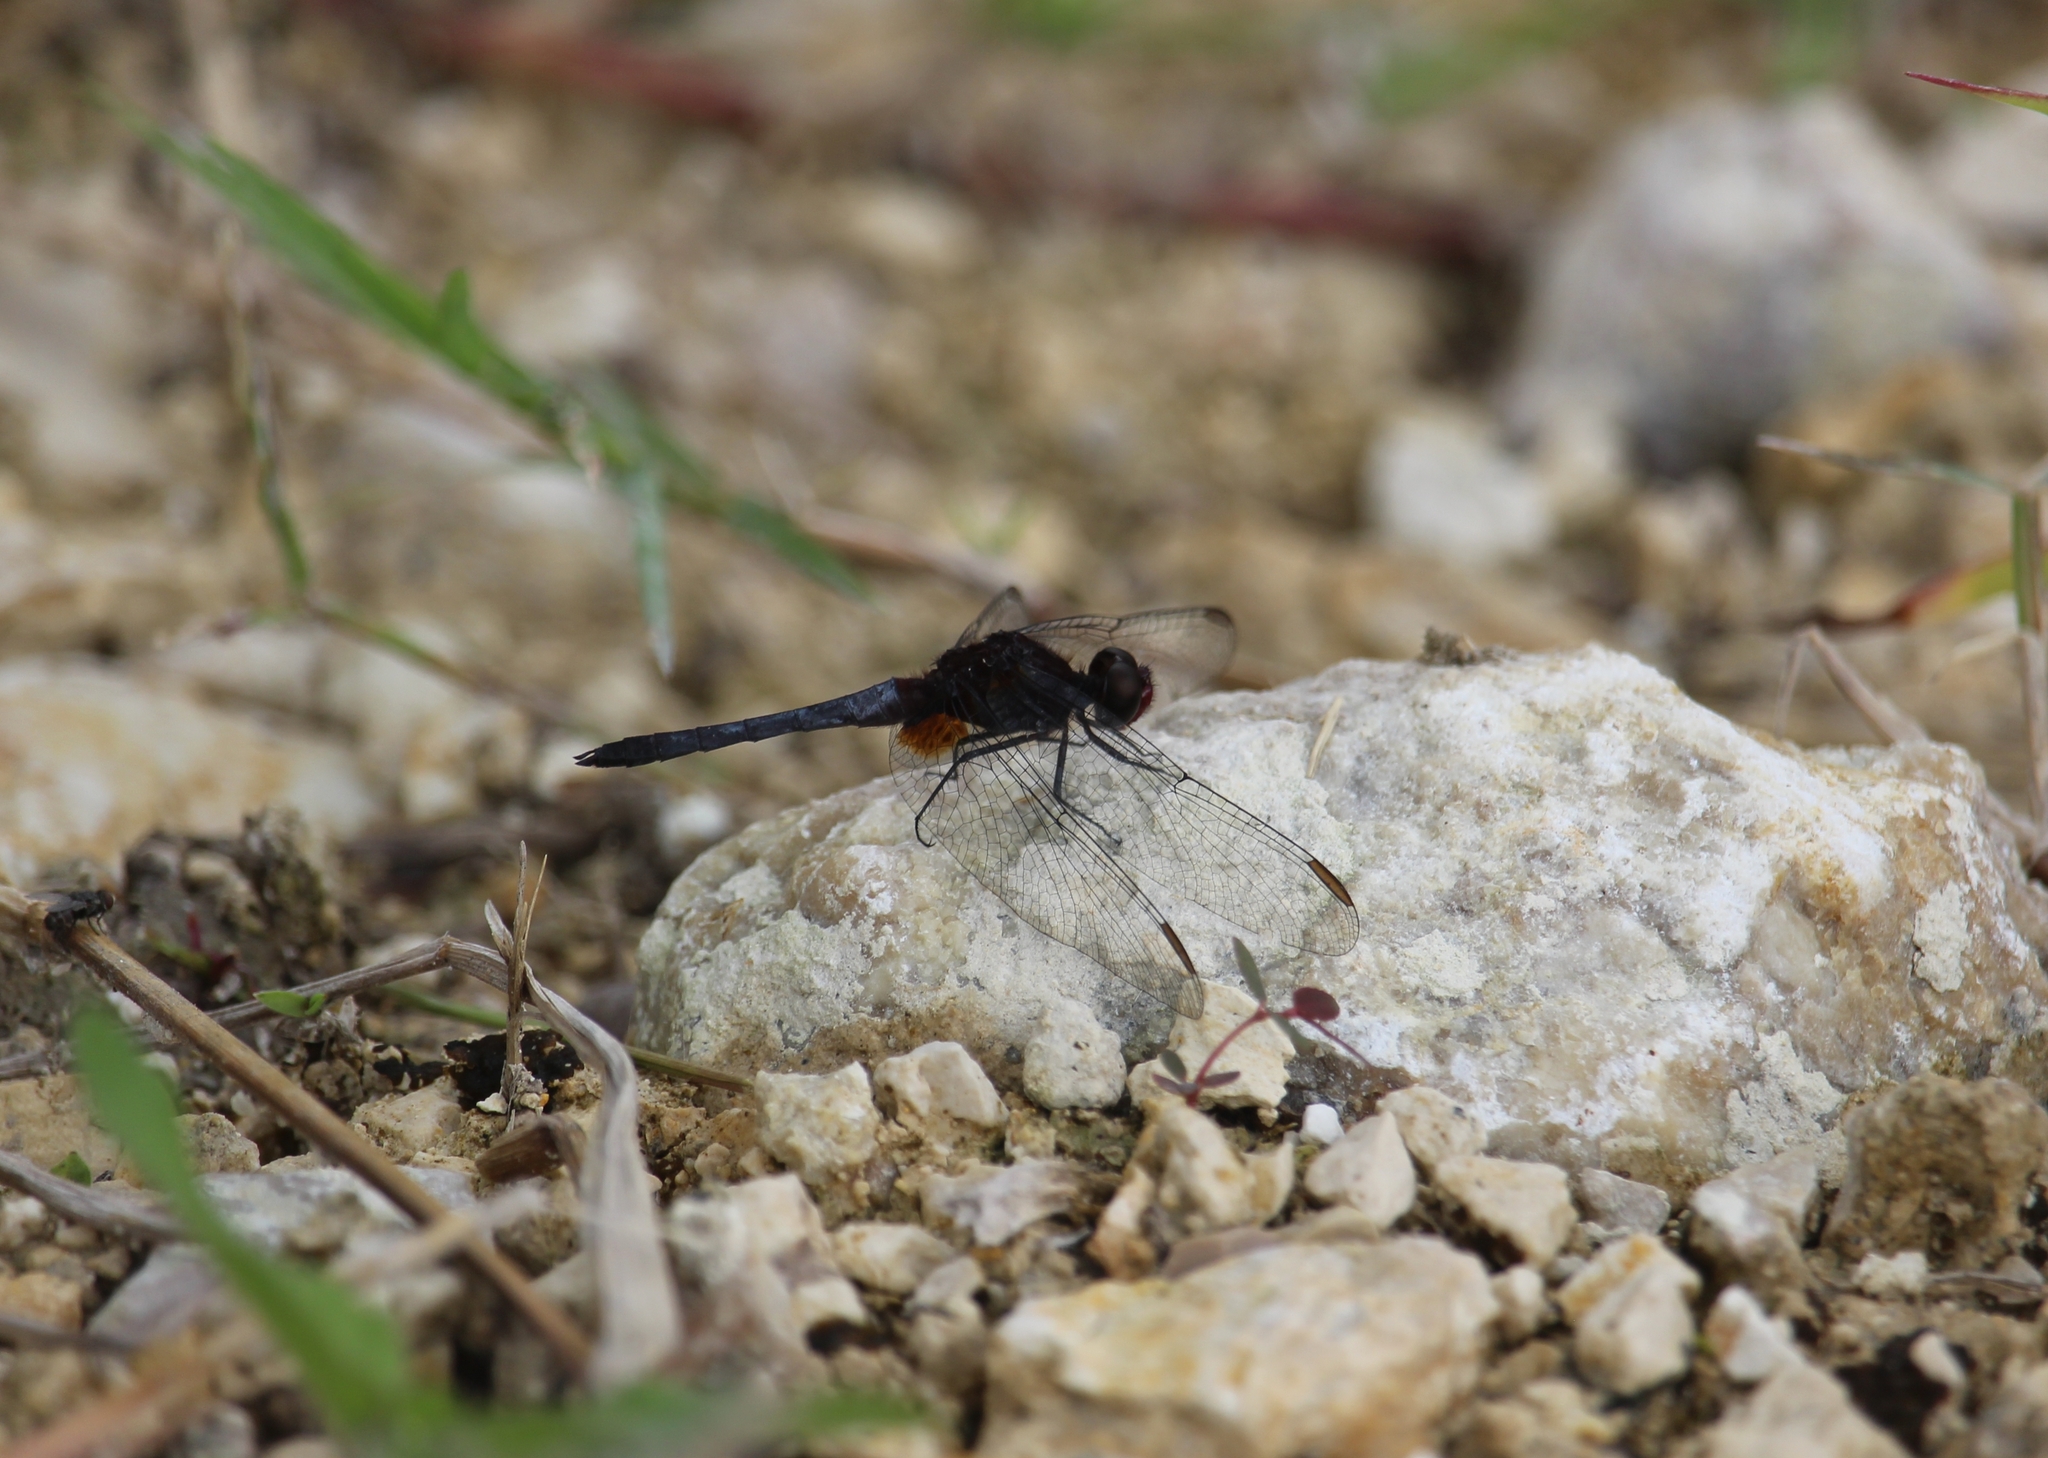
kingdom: Animalia
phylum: Arthropoda
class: Insecta
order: Odonata
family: Libellulidae
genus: Erythrodiplax
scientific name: Erythrodiplax fusca
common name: Red-faced dragonlet
